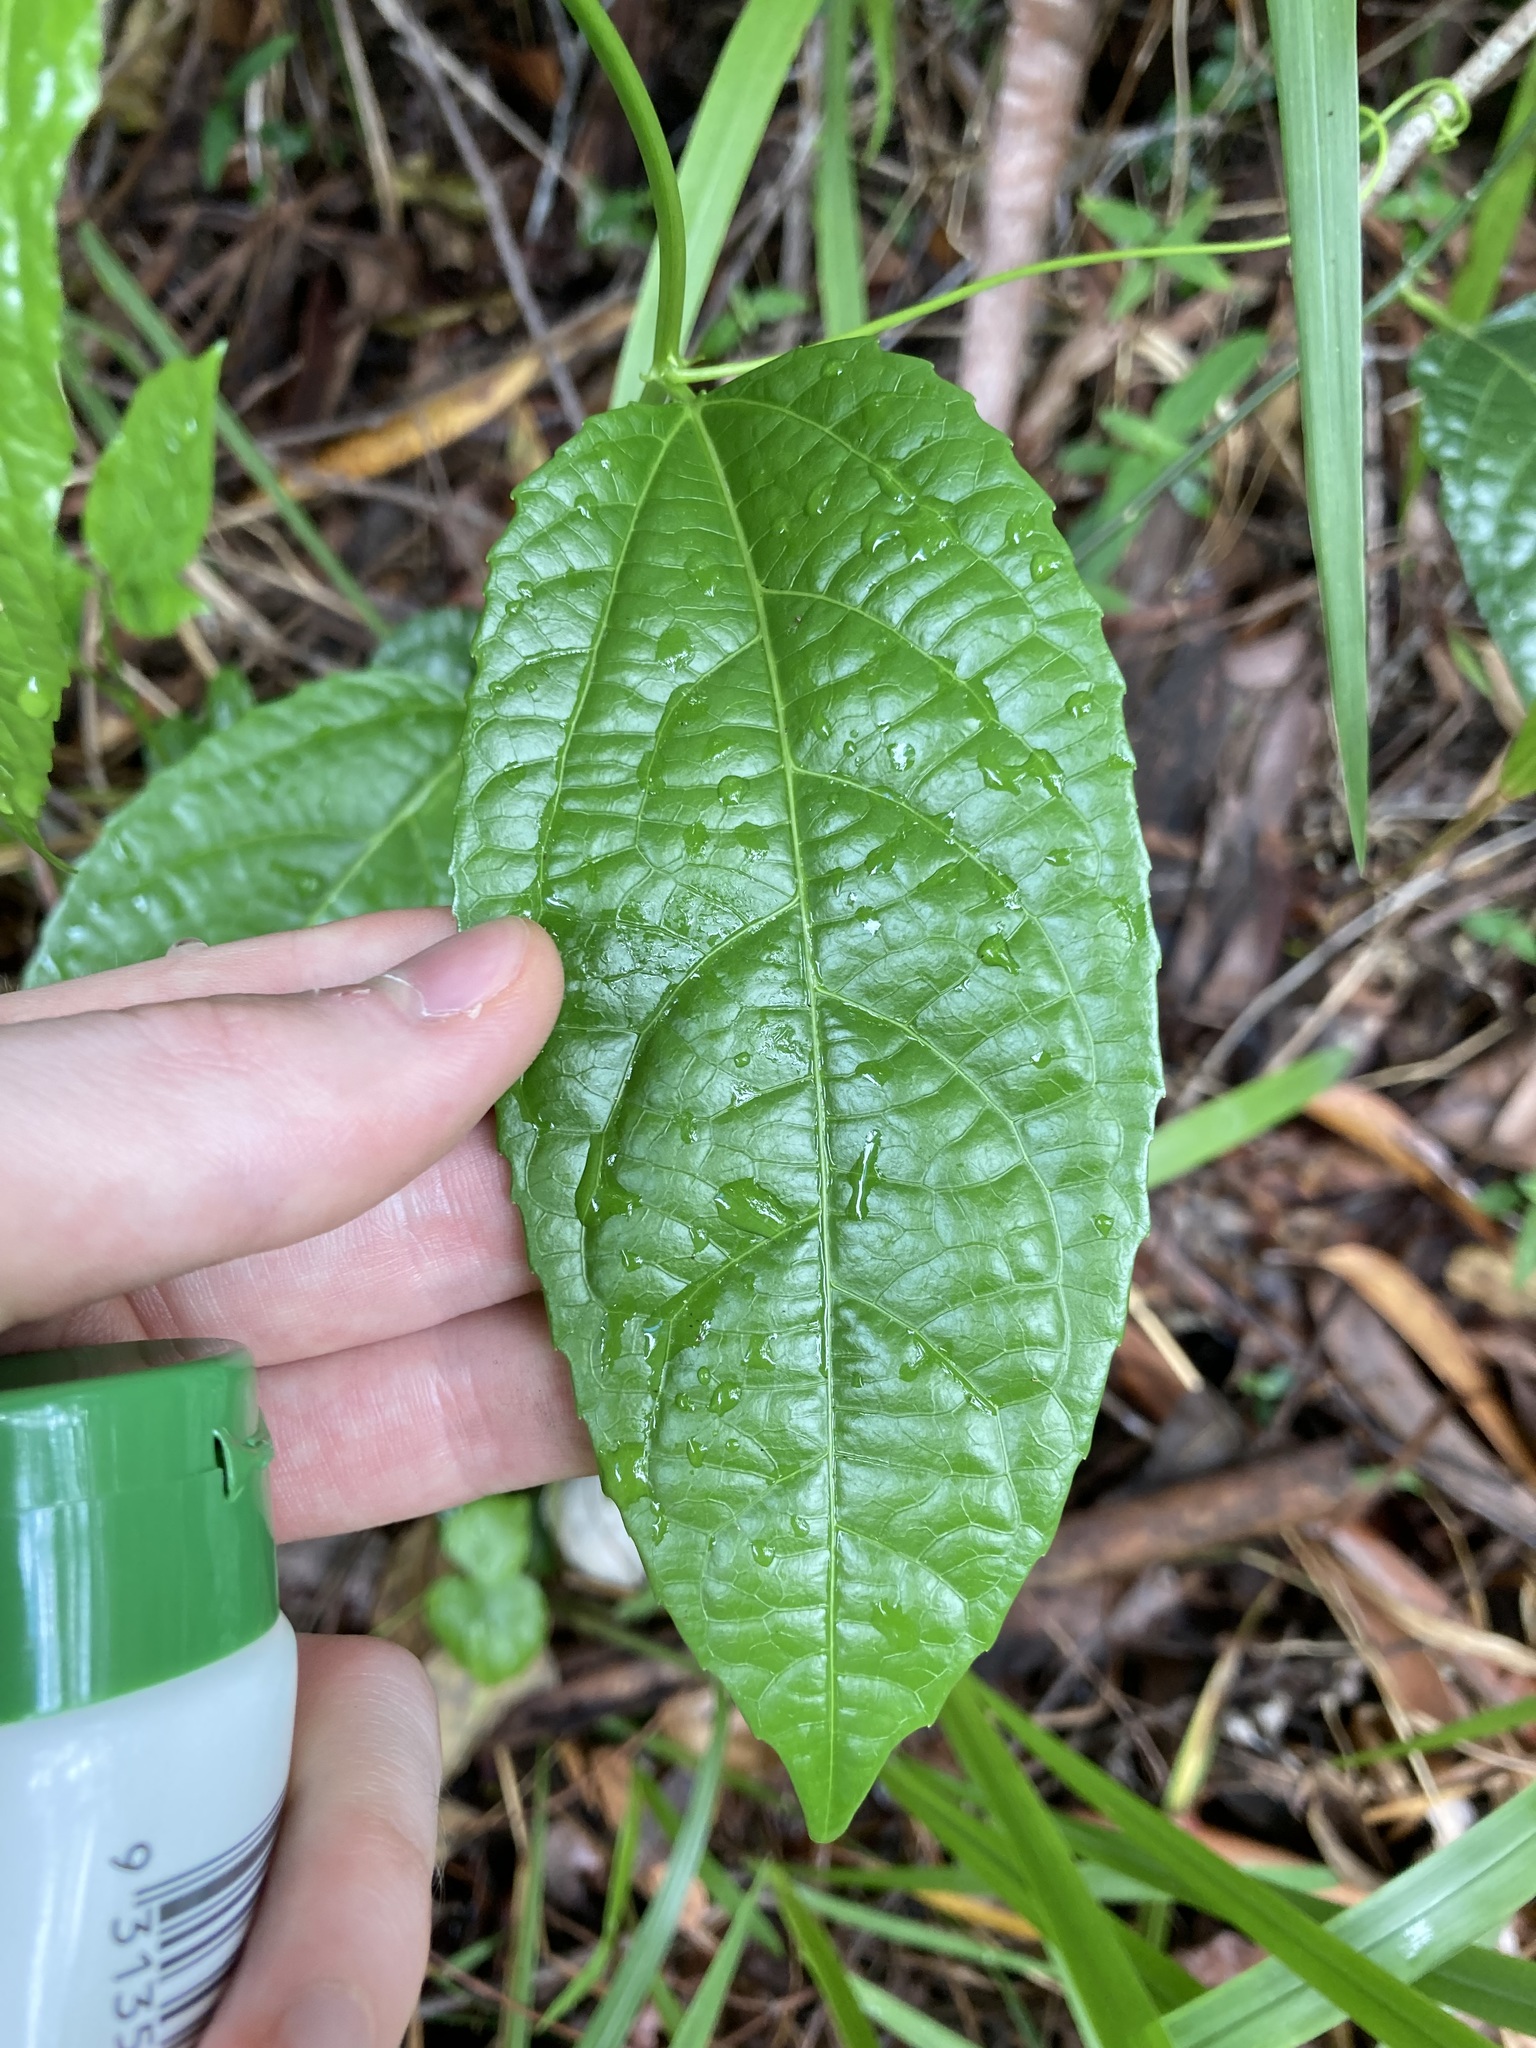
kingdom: Plantae
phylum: Tracheophyta
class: Magnoliopsida
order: Malpighiales
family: Passifloraceae
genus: Passiflora
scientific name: Passiflora edulis
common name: Purple granadilla
